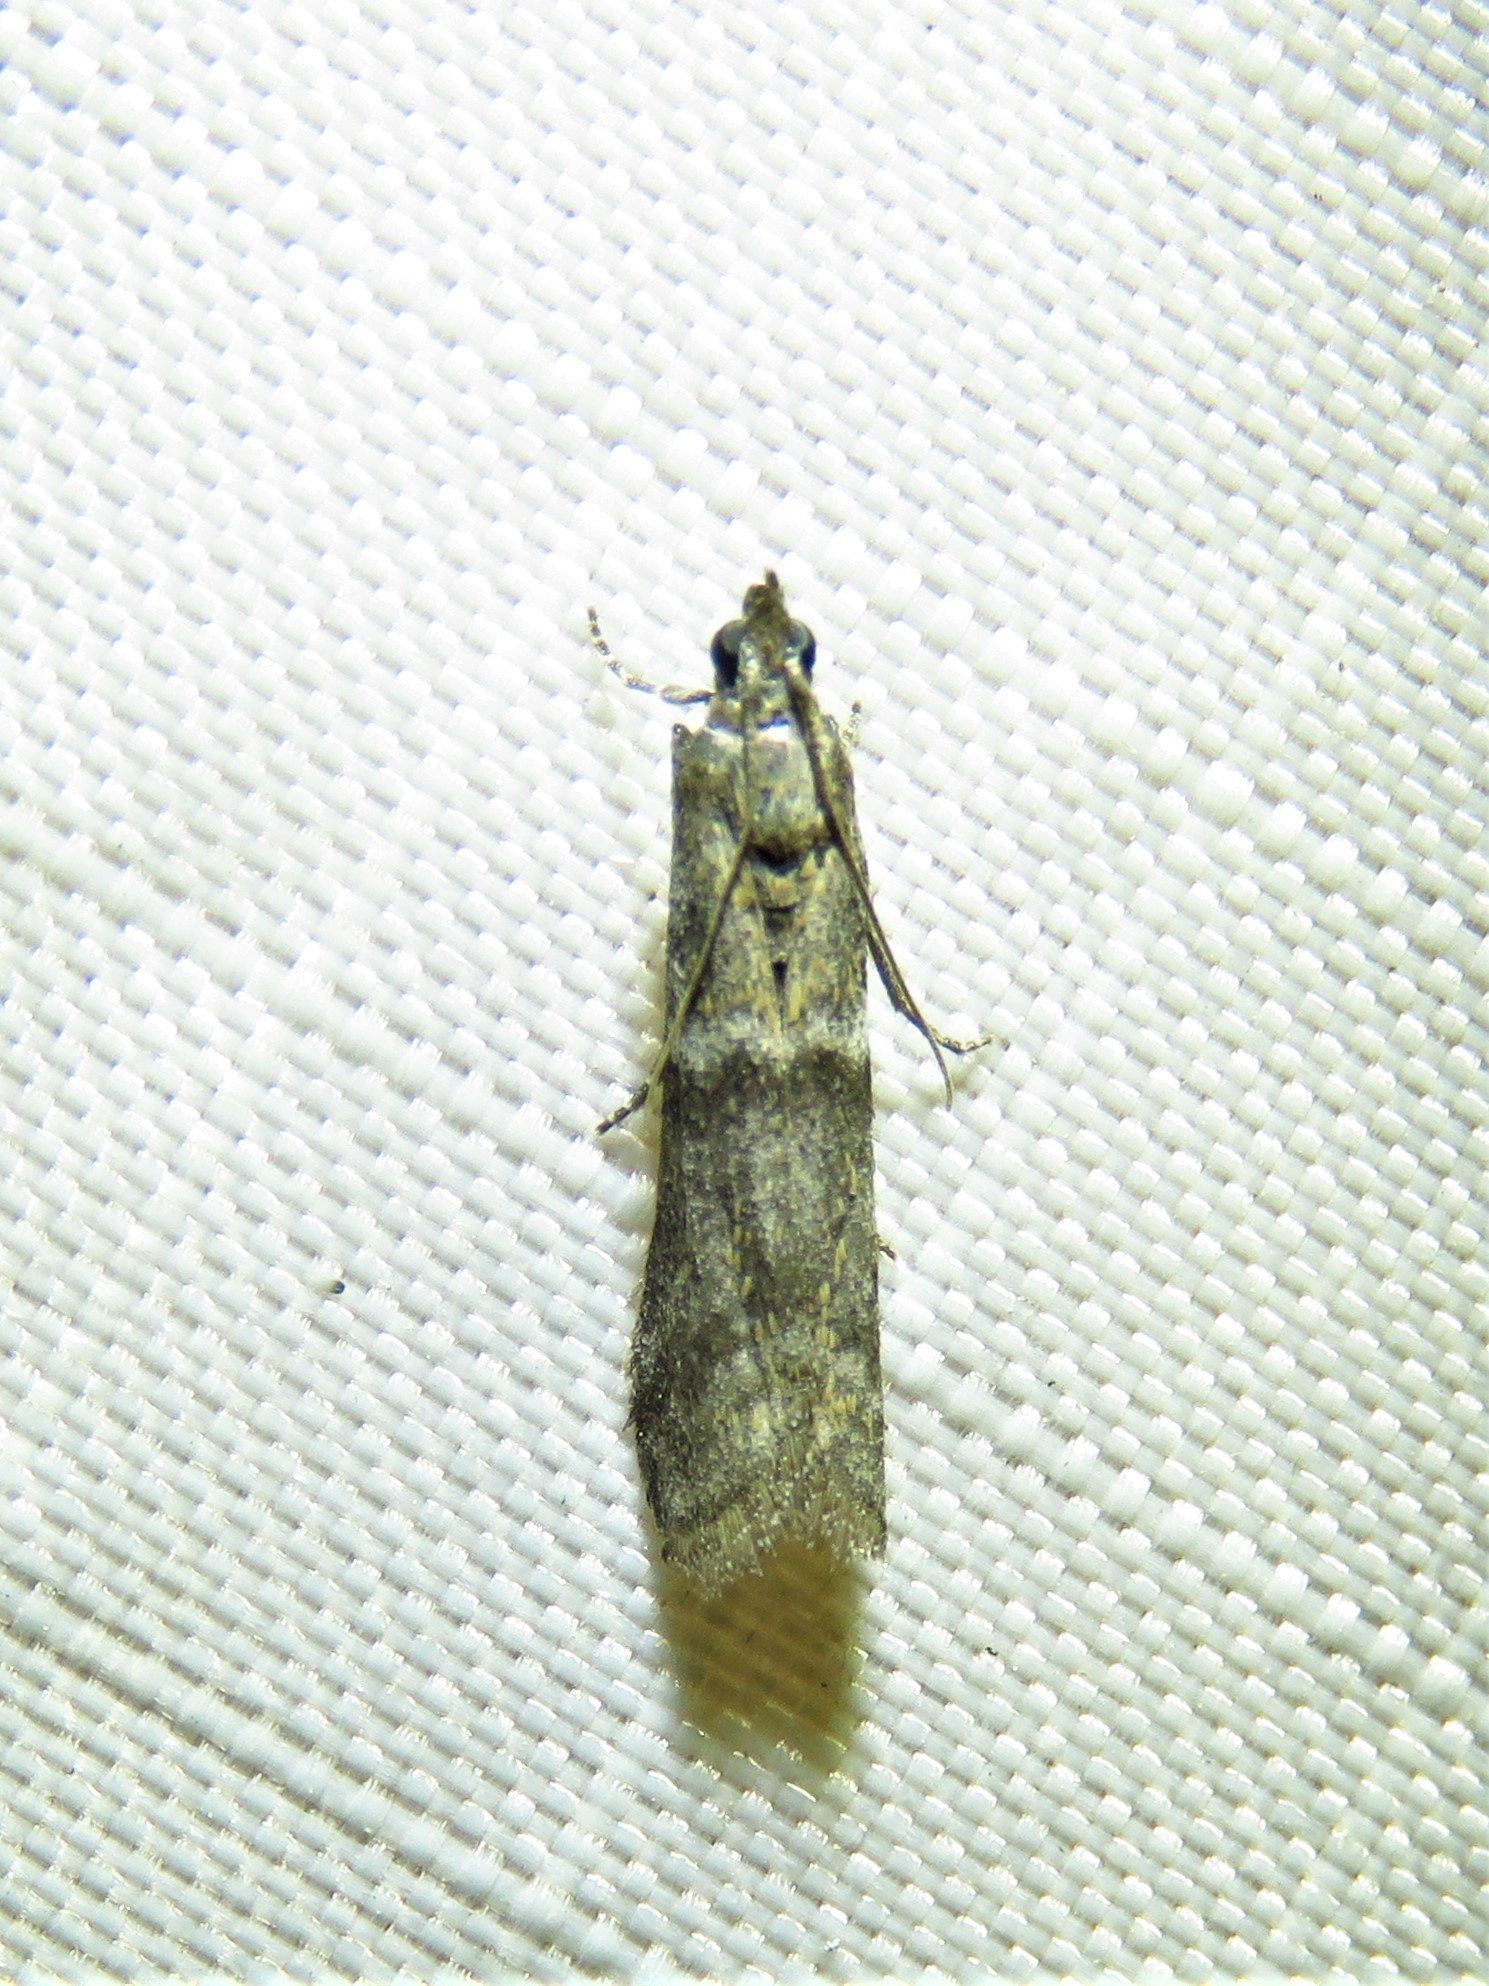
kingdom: Animalia
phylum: Arthropoda
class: Insecta
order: Lepidoptera
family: Pyralidae
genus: Ephestiodes
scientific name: Ephestiodes gilvescentella
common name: Moth
